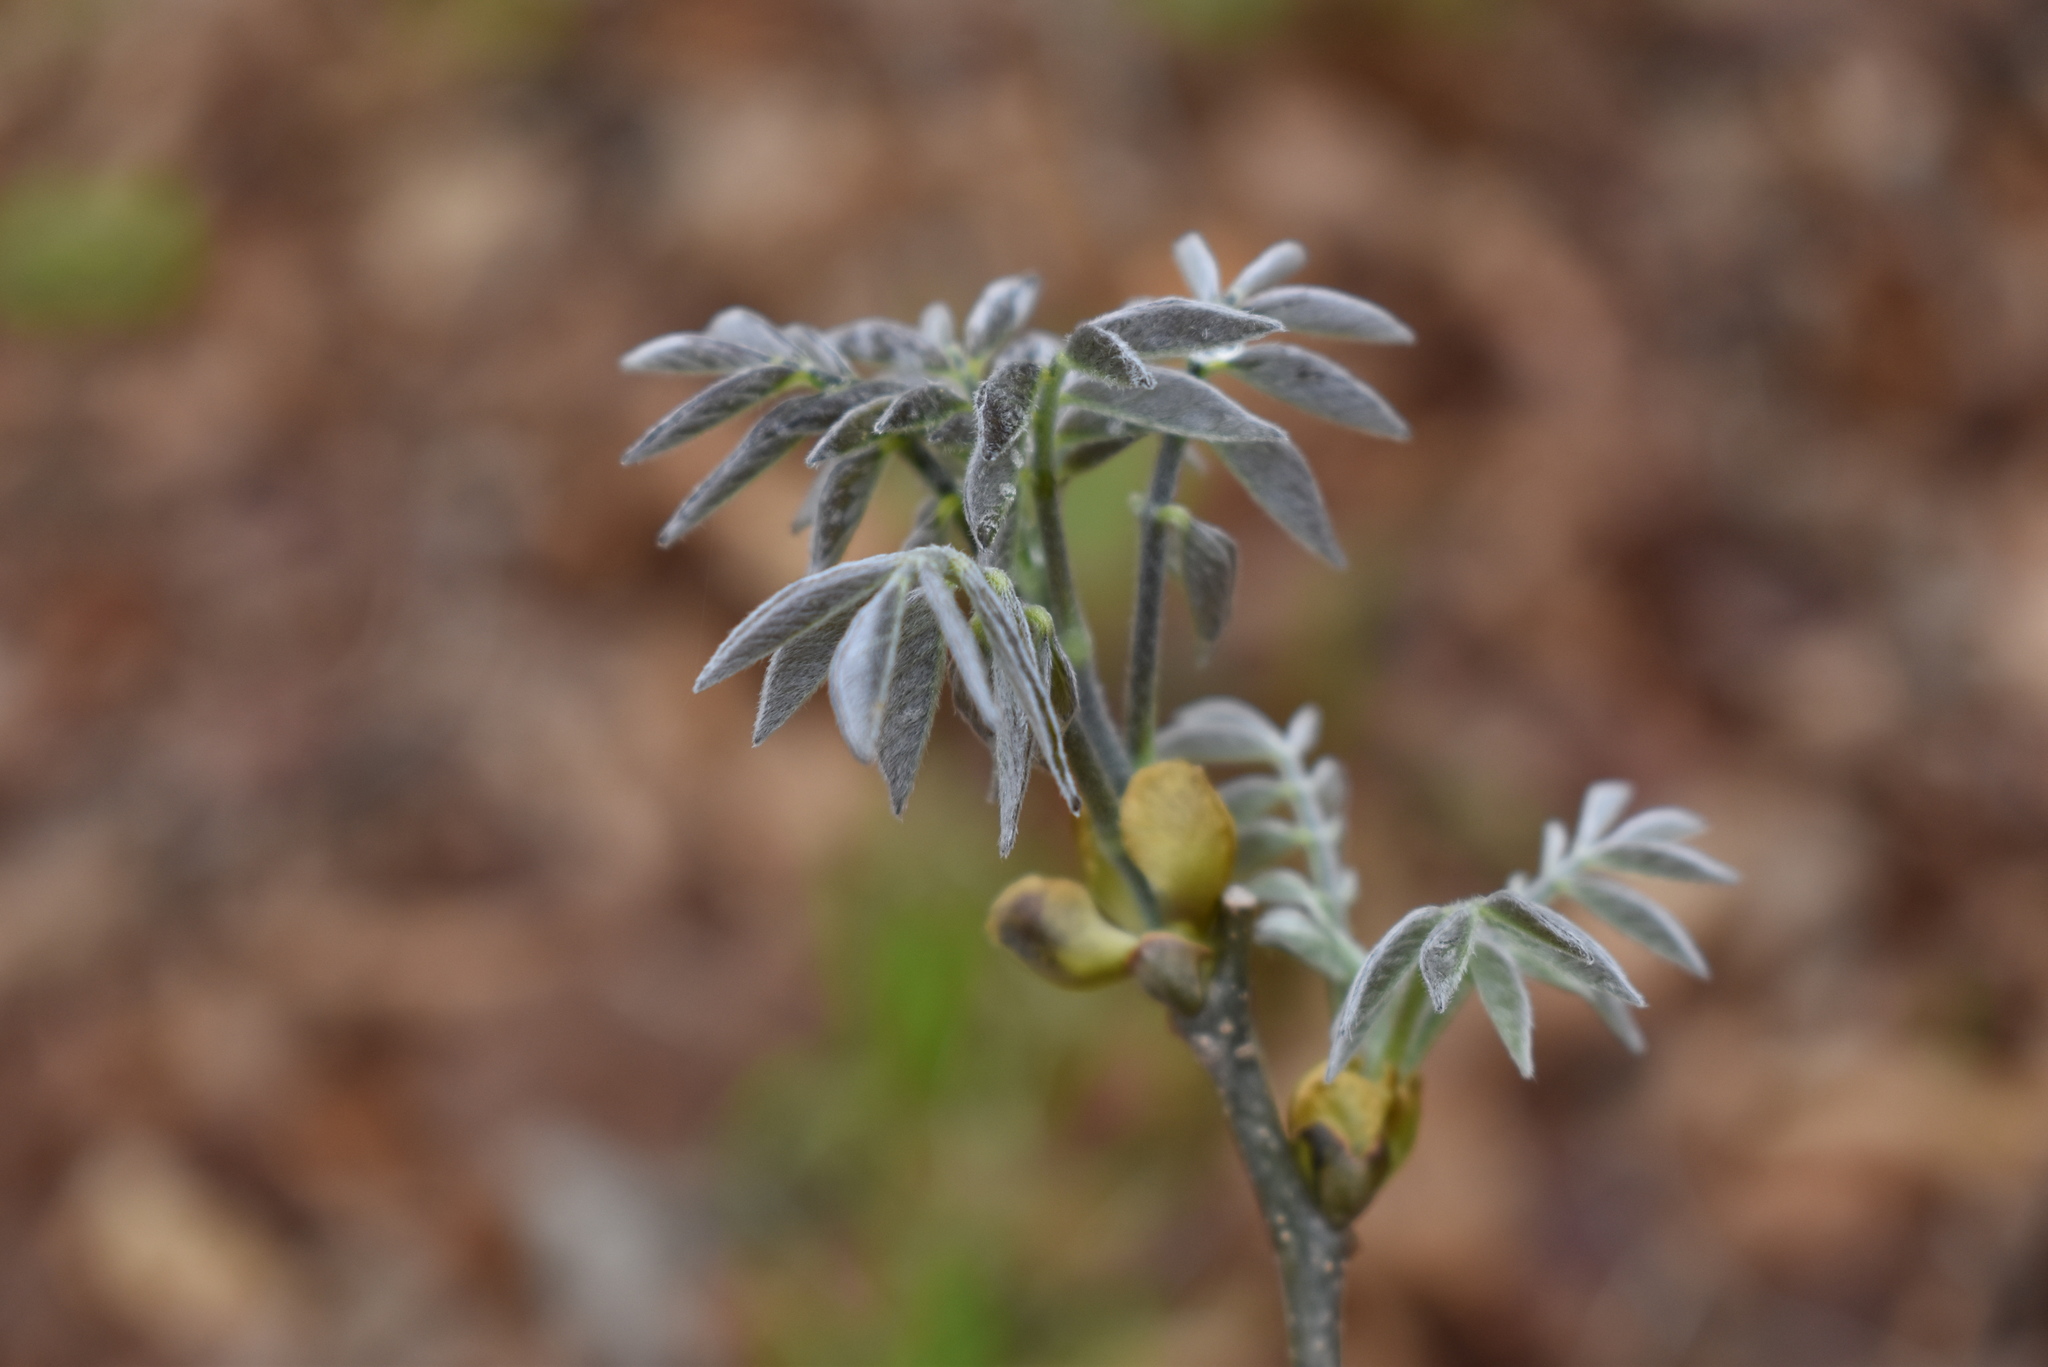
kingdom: Plantae
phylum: Tracheophyta
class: Magnoliopsida
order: Fabales
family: Fabaceae
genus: Maackia
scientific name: Maackia amurensis
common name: Amur maackia
